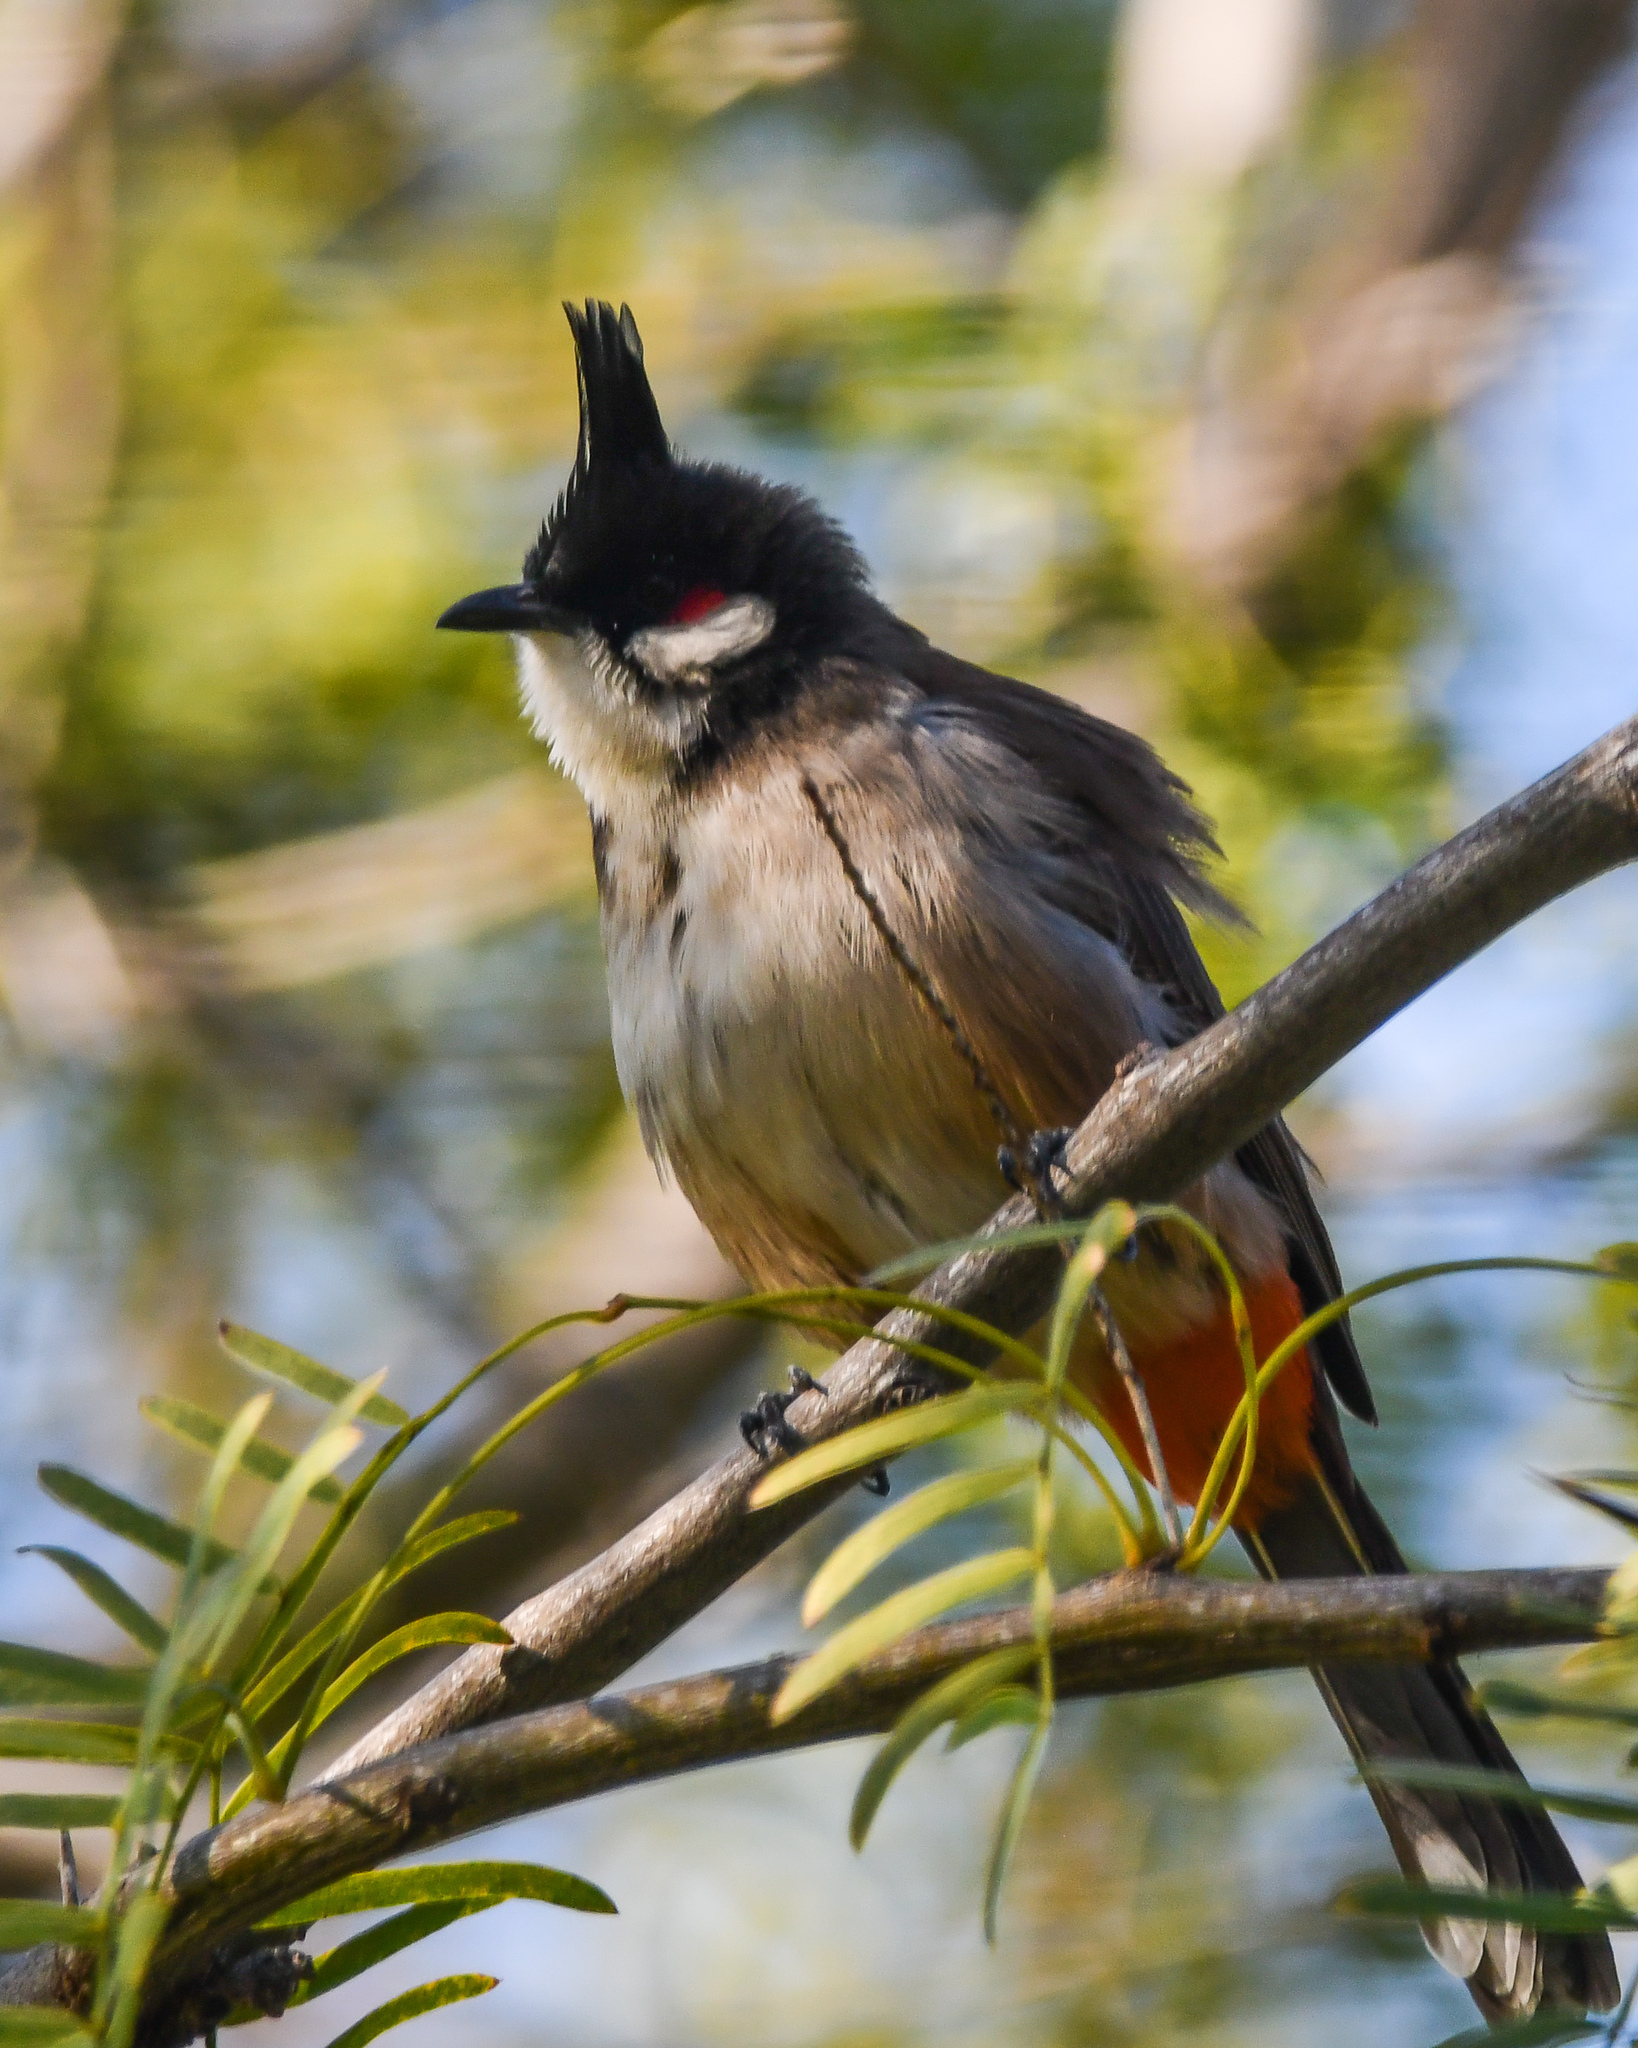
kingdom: Animalia
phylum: Chordata
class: Aves
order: Passeriformes
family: Pycnonotidae
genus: Pycnonotus
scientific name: Pycnonotus jocosus
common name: Red-whiskered bulbul
